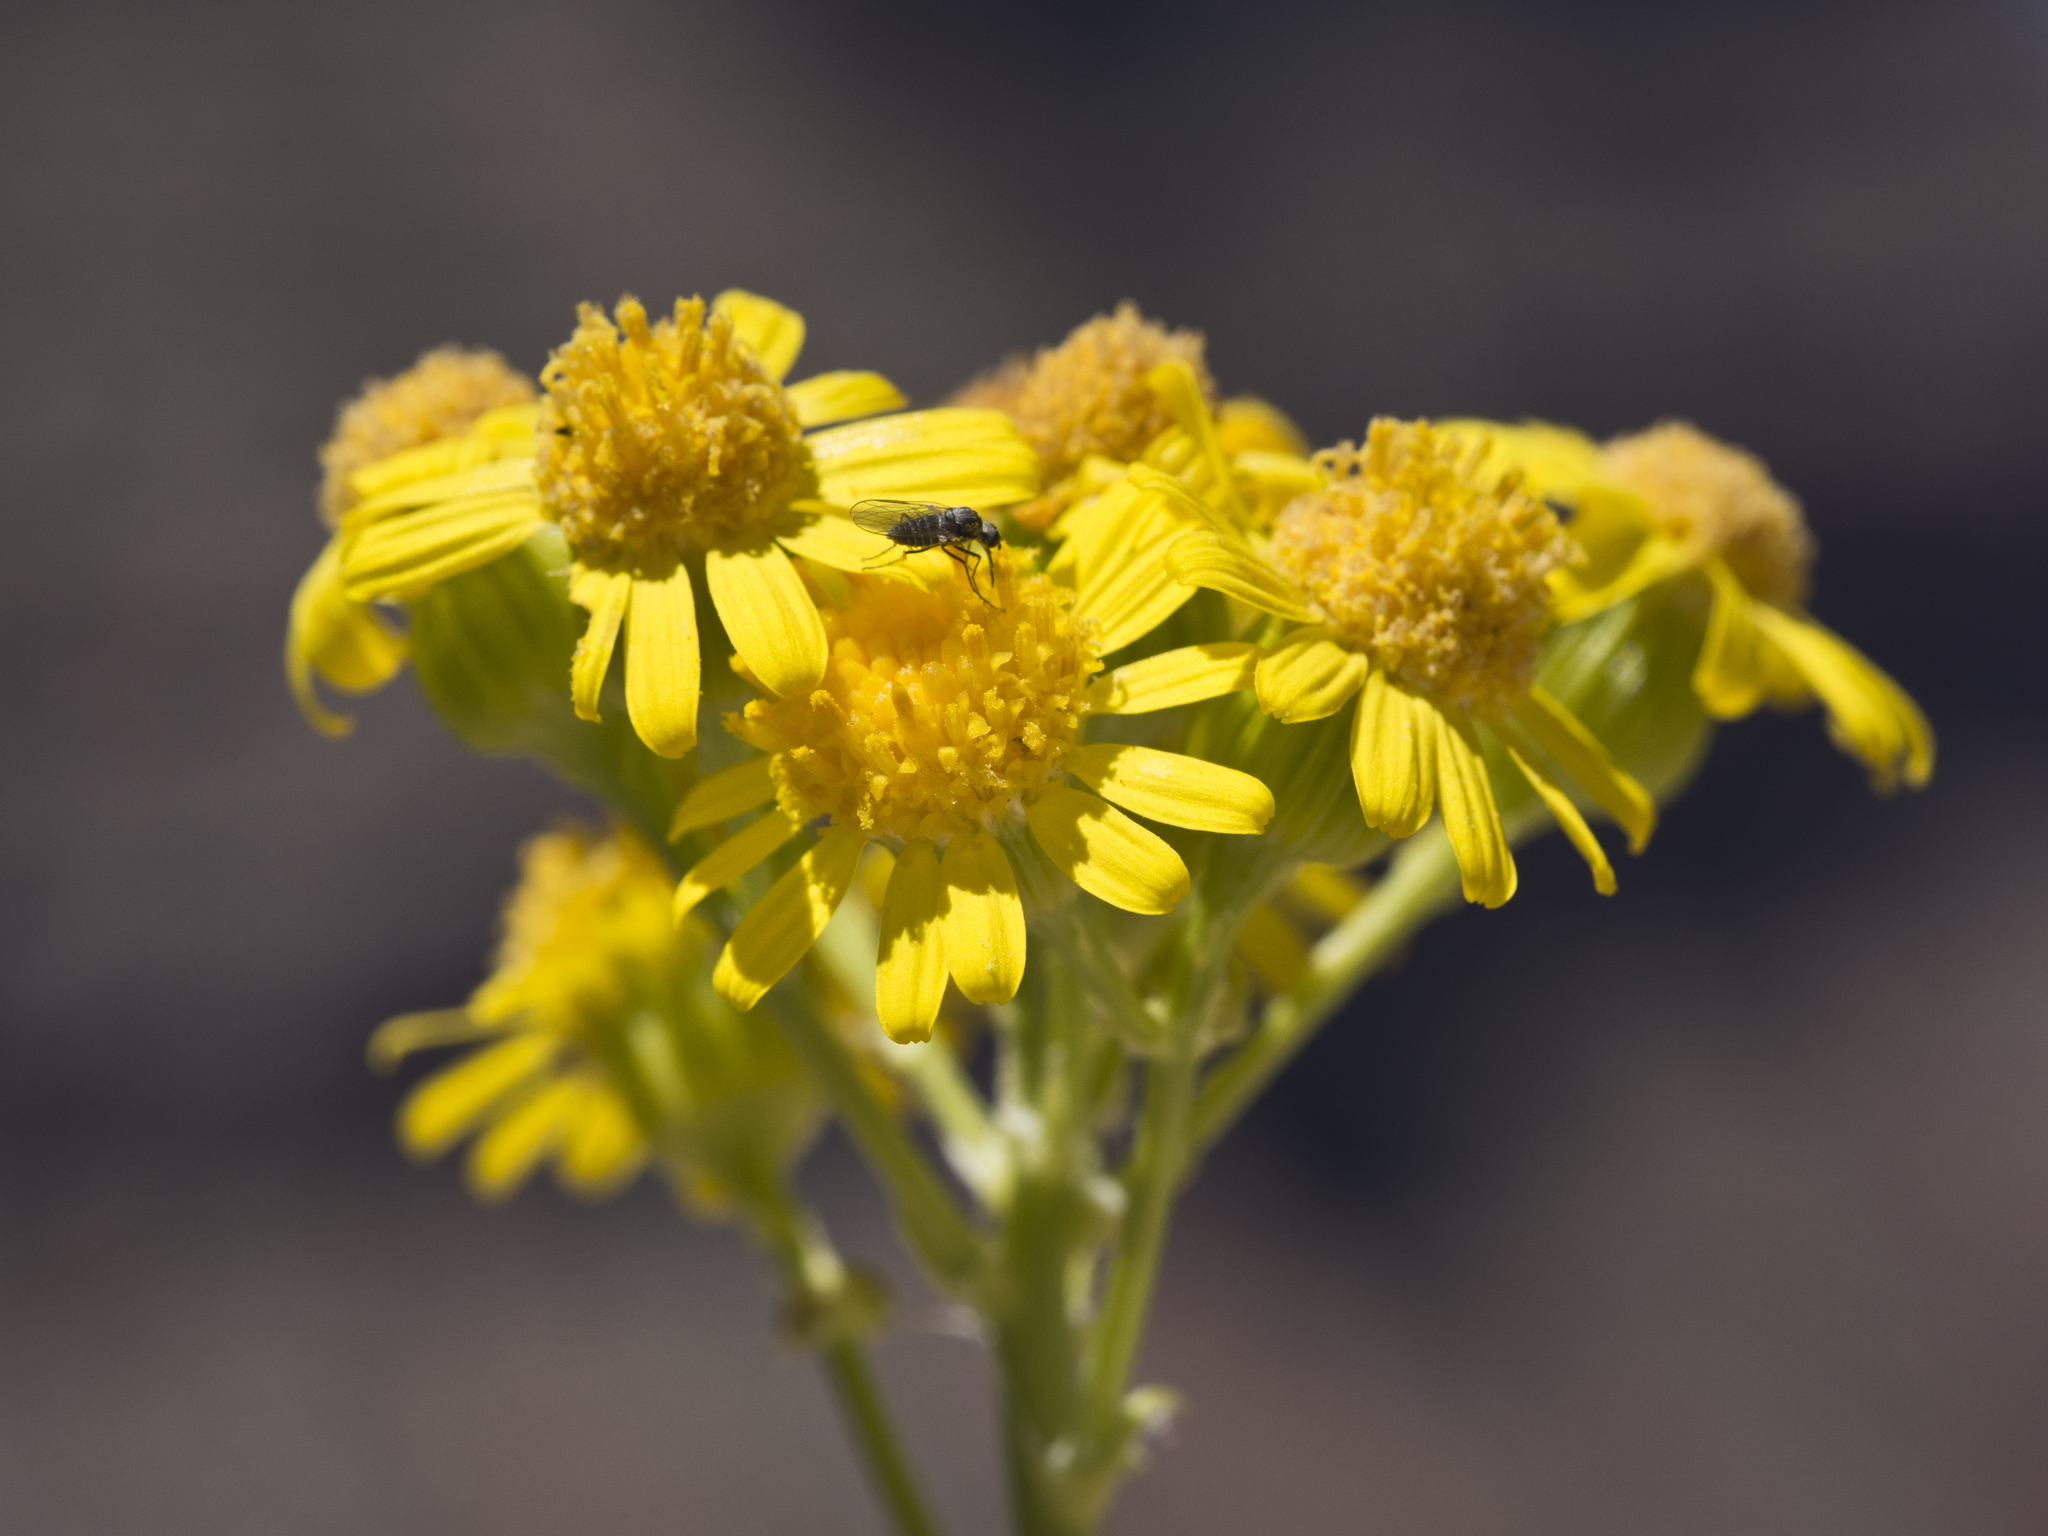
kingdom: Plantae
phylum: Tracheophyta
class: Magnoliopsida
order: Asterales
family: Asteraceae
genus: Packera
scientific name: Packera multilobata
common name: Lobe-leaf groundsel
